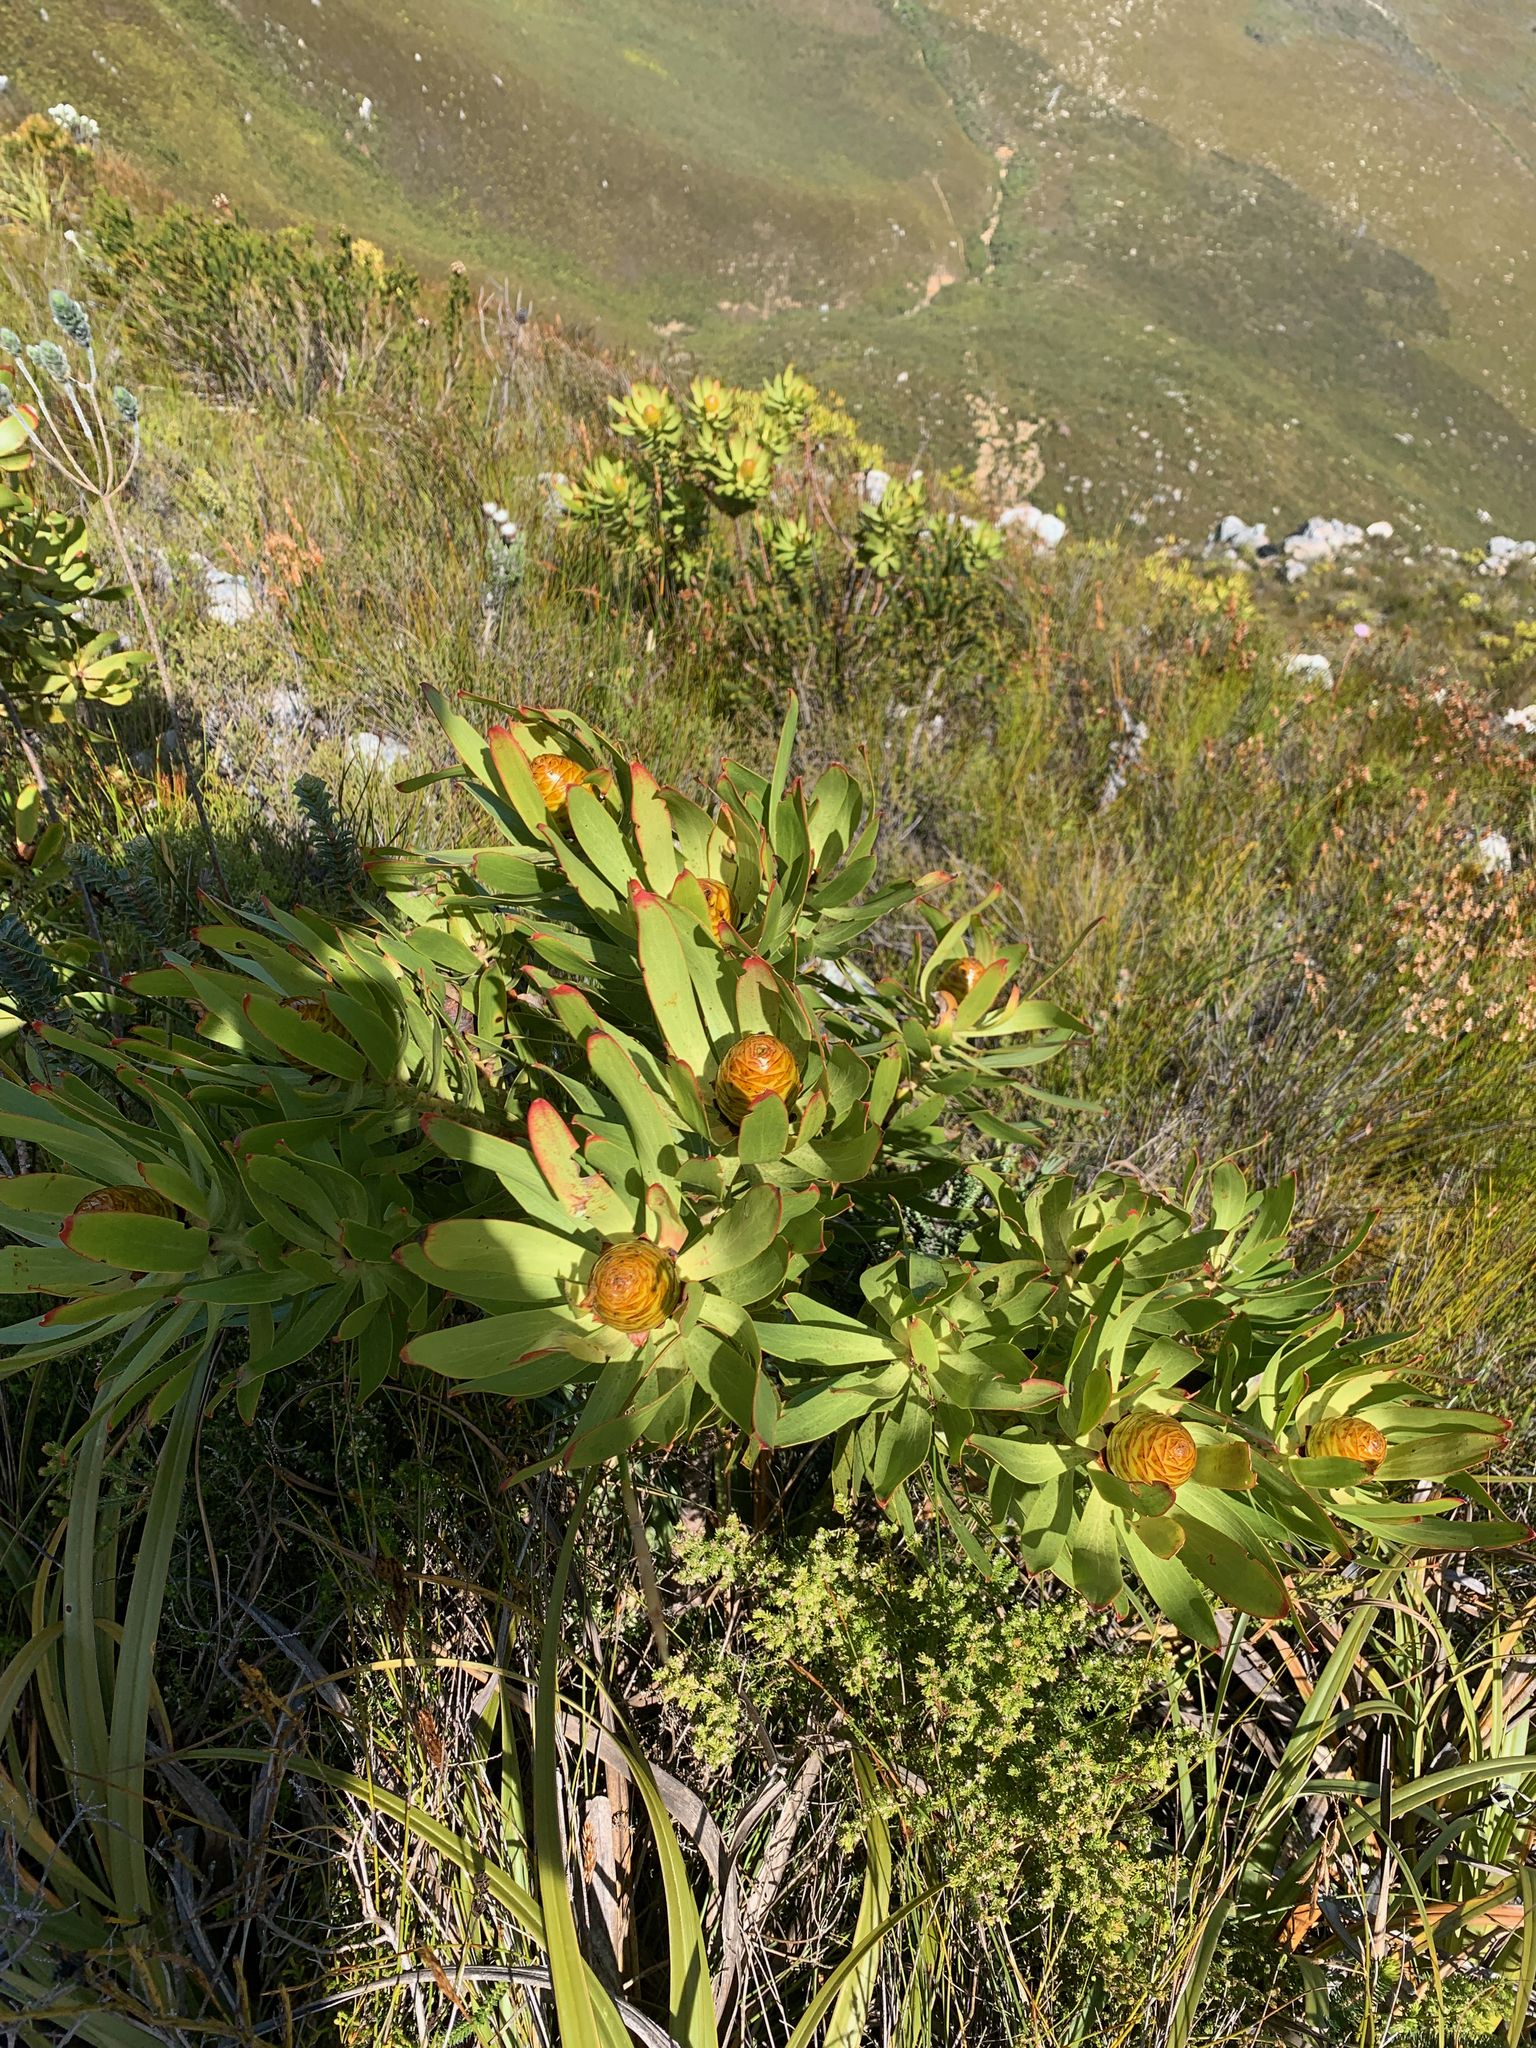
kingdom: Plantae
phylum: Tracheophyta
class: Magnoliopsida
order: Proteales
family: Proteaceae
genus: Leucadendron
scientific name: Leucadendron gandogeri
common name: Broad-leaf conebush
